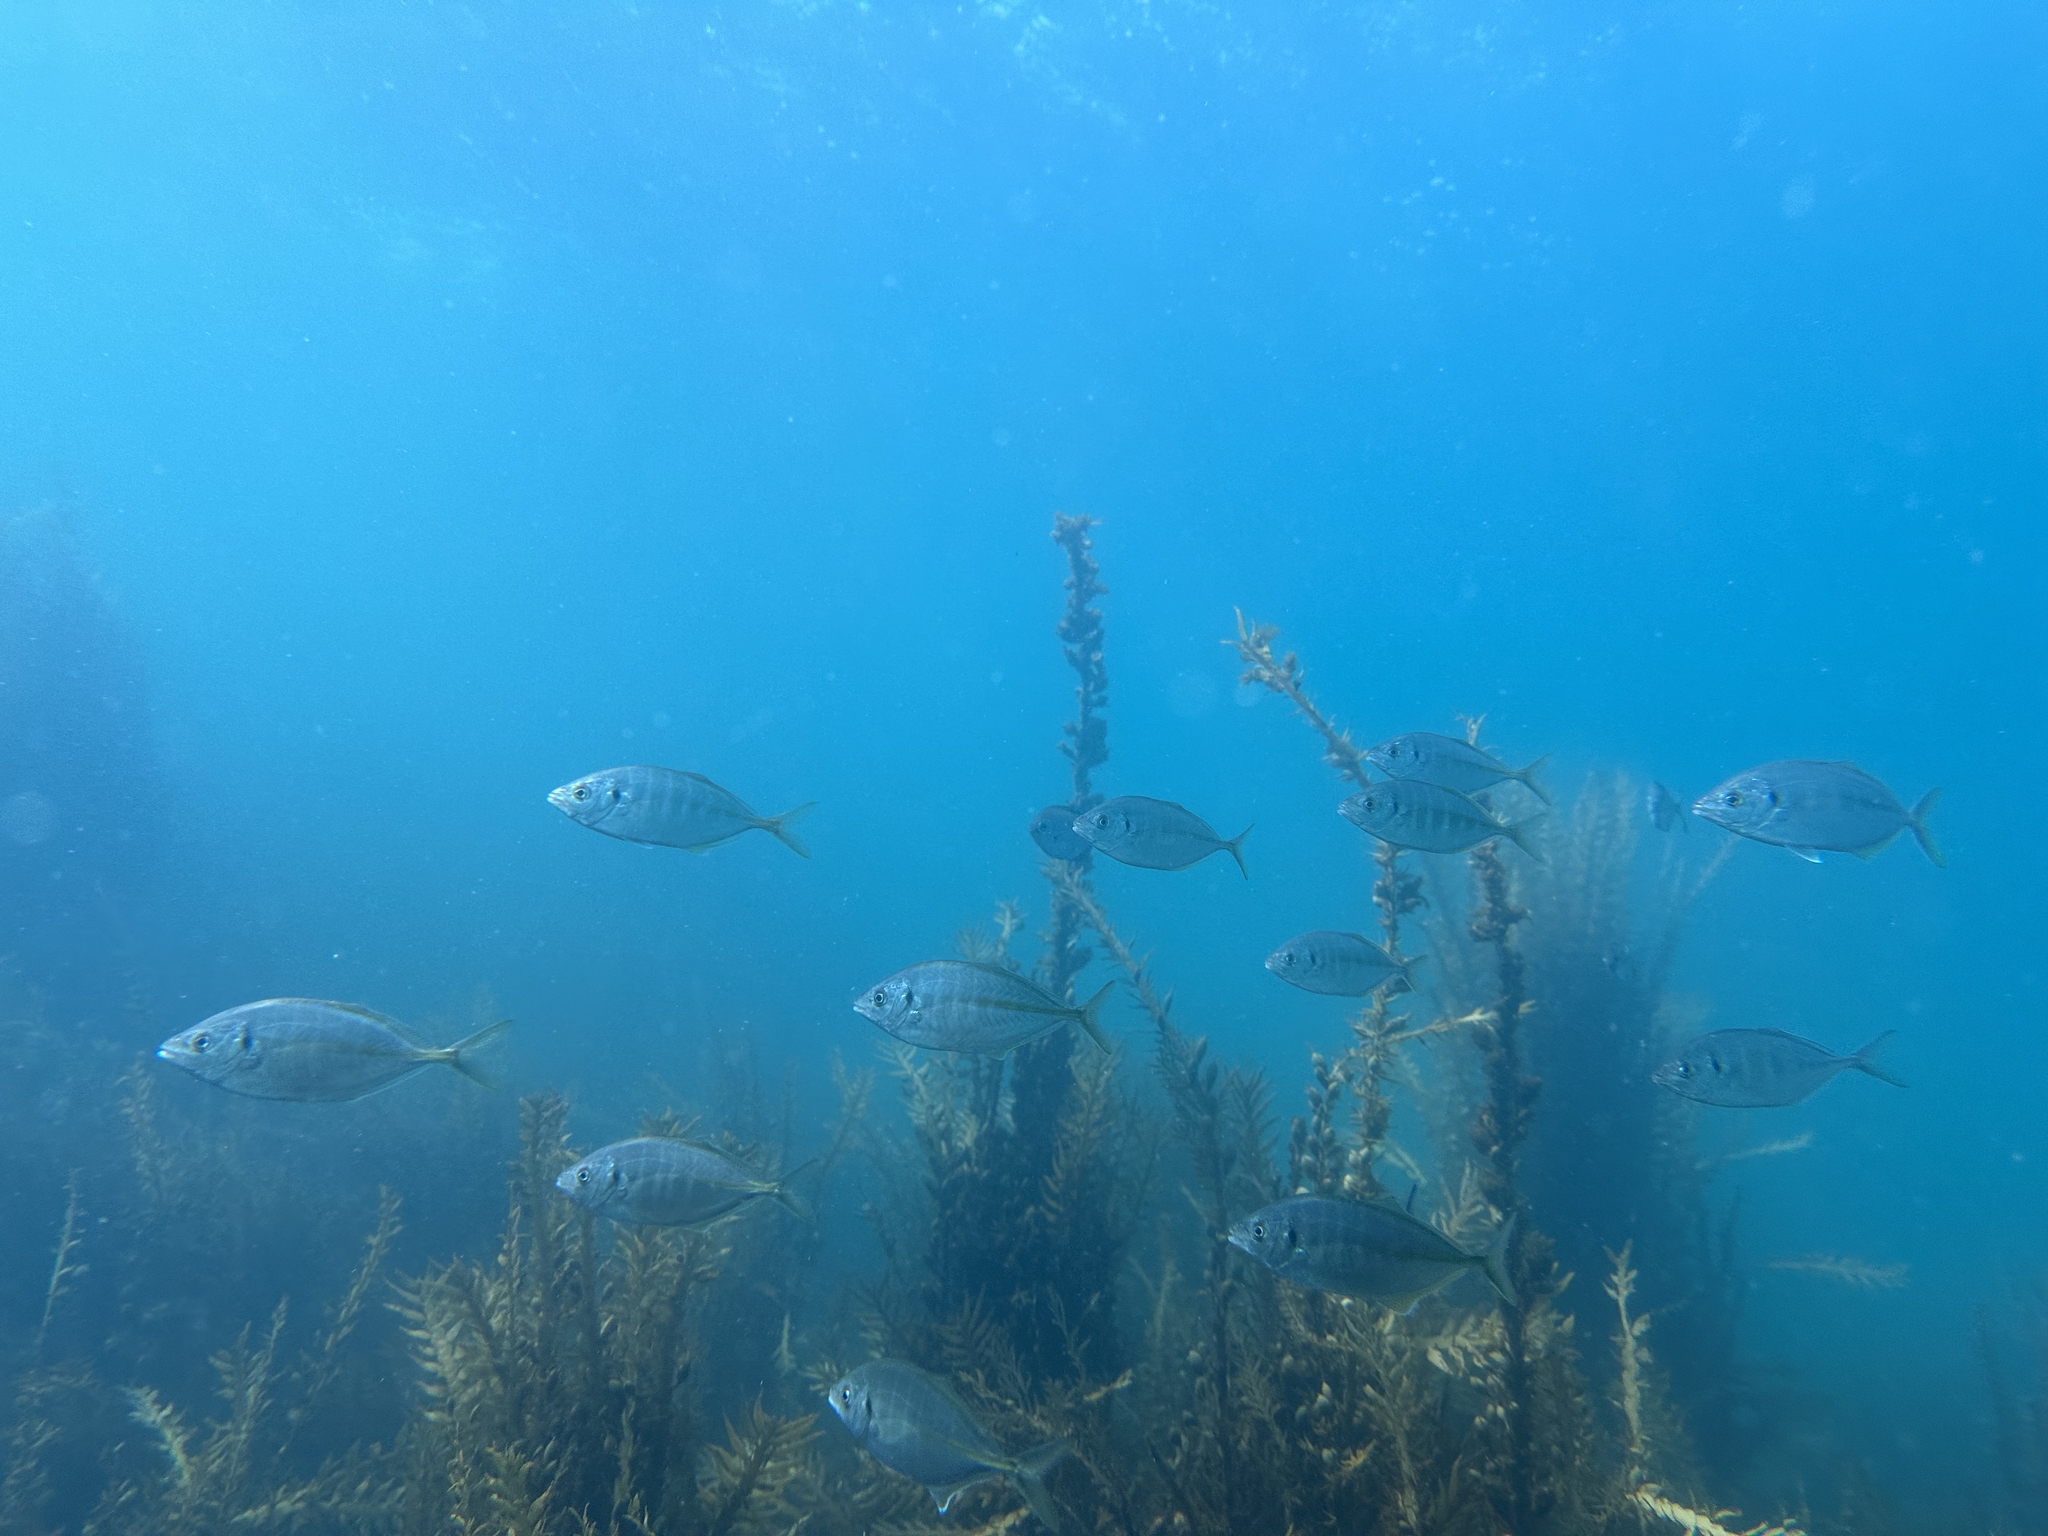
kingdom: Animalia
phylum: Chordata
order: Perciformes
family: Carangidae
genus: Pseudocaranx
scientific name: Pseudocaranx dentex
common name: White trevally
